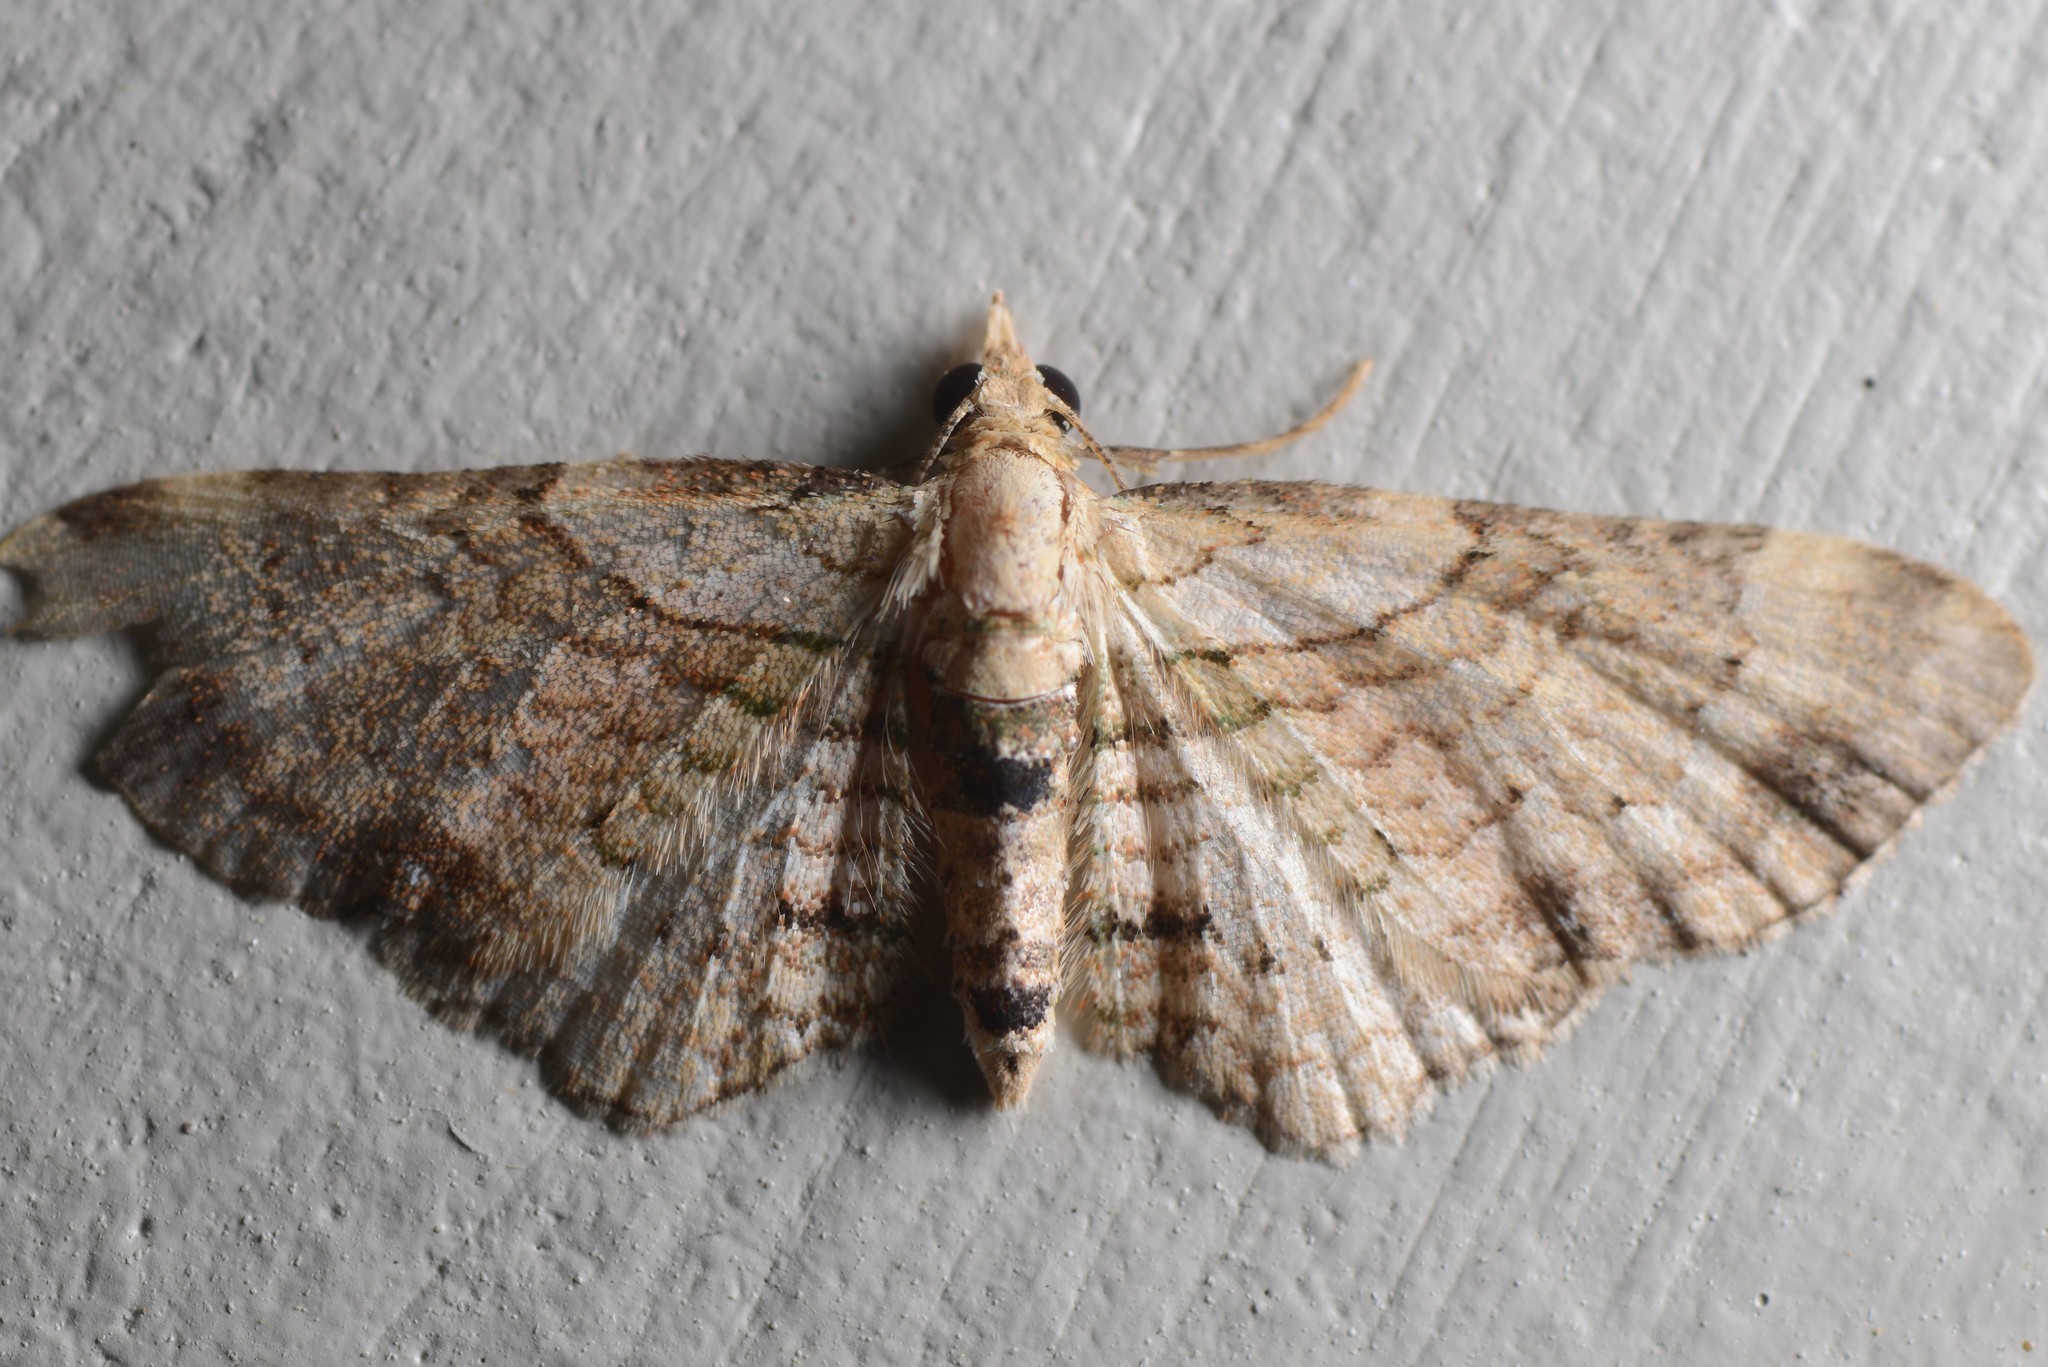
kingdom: Animalia
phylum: Arthropoda
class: Insecta
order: Lepidoptera
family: Geometridae
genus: Chloroclystis
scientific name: Chloroclystis
